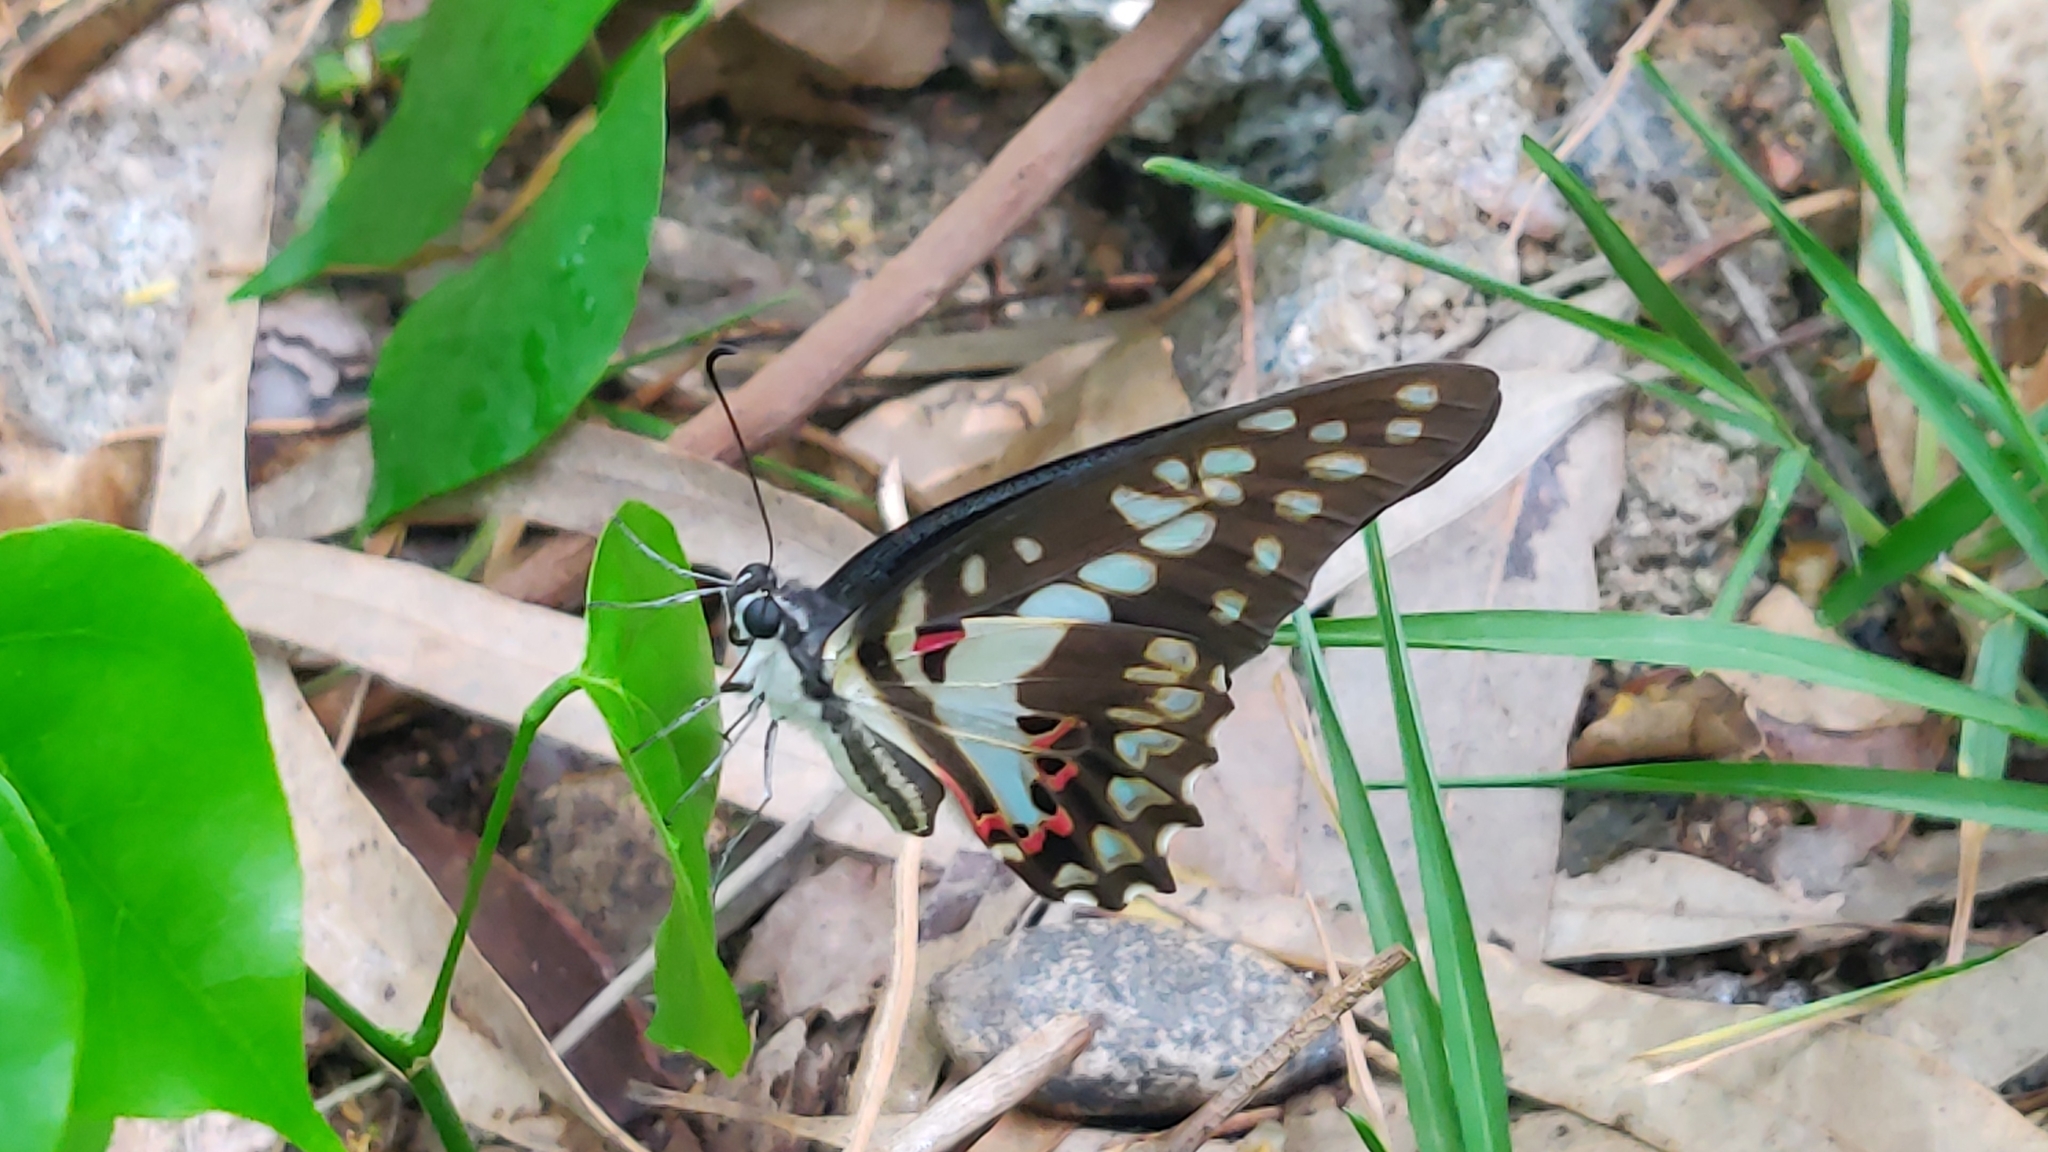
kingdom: Animalia
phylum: Arthropoda
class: Insecta
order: Lepidoptera
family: Papilionidae
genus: Graphium
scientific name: Graphium doson
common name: Common jay
